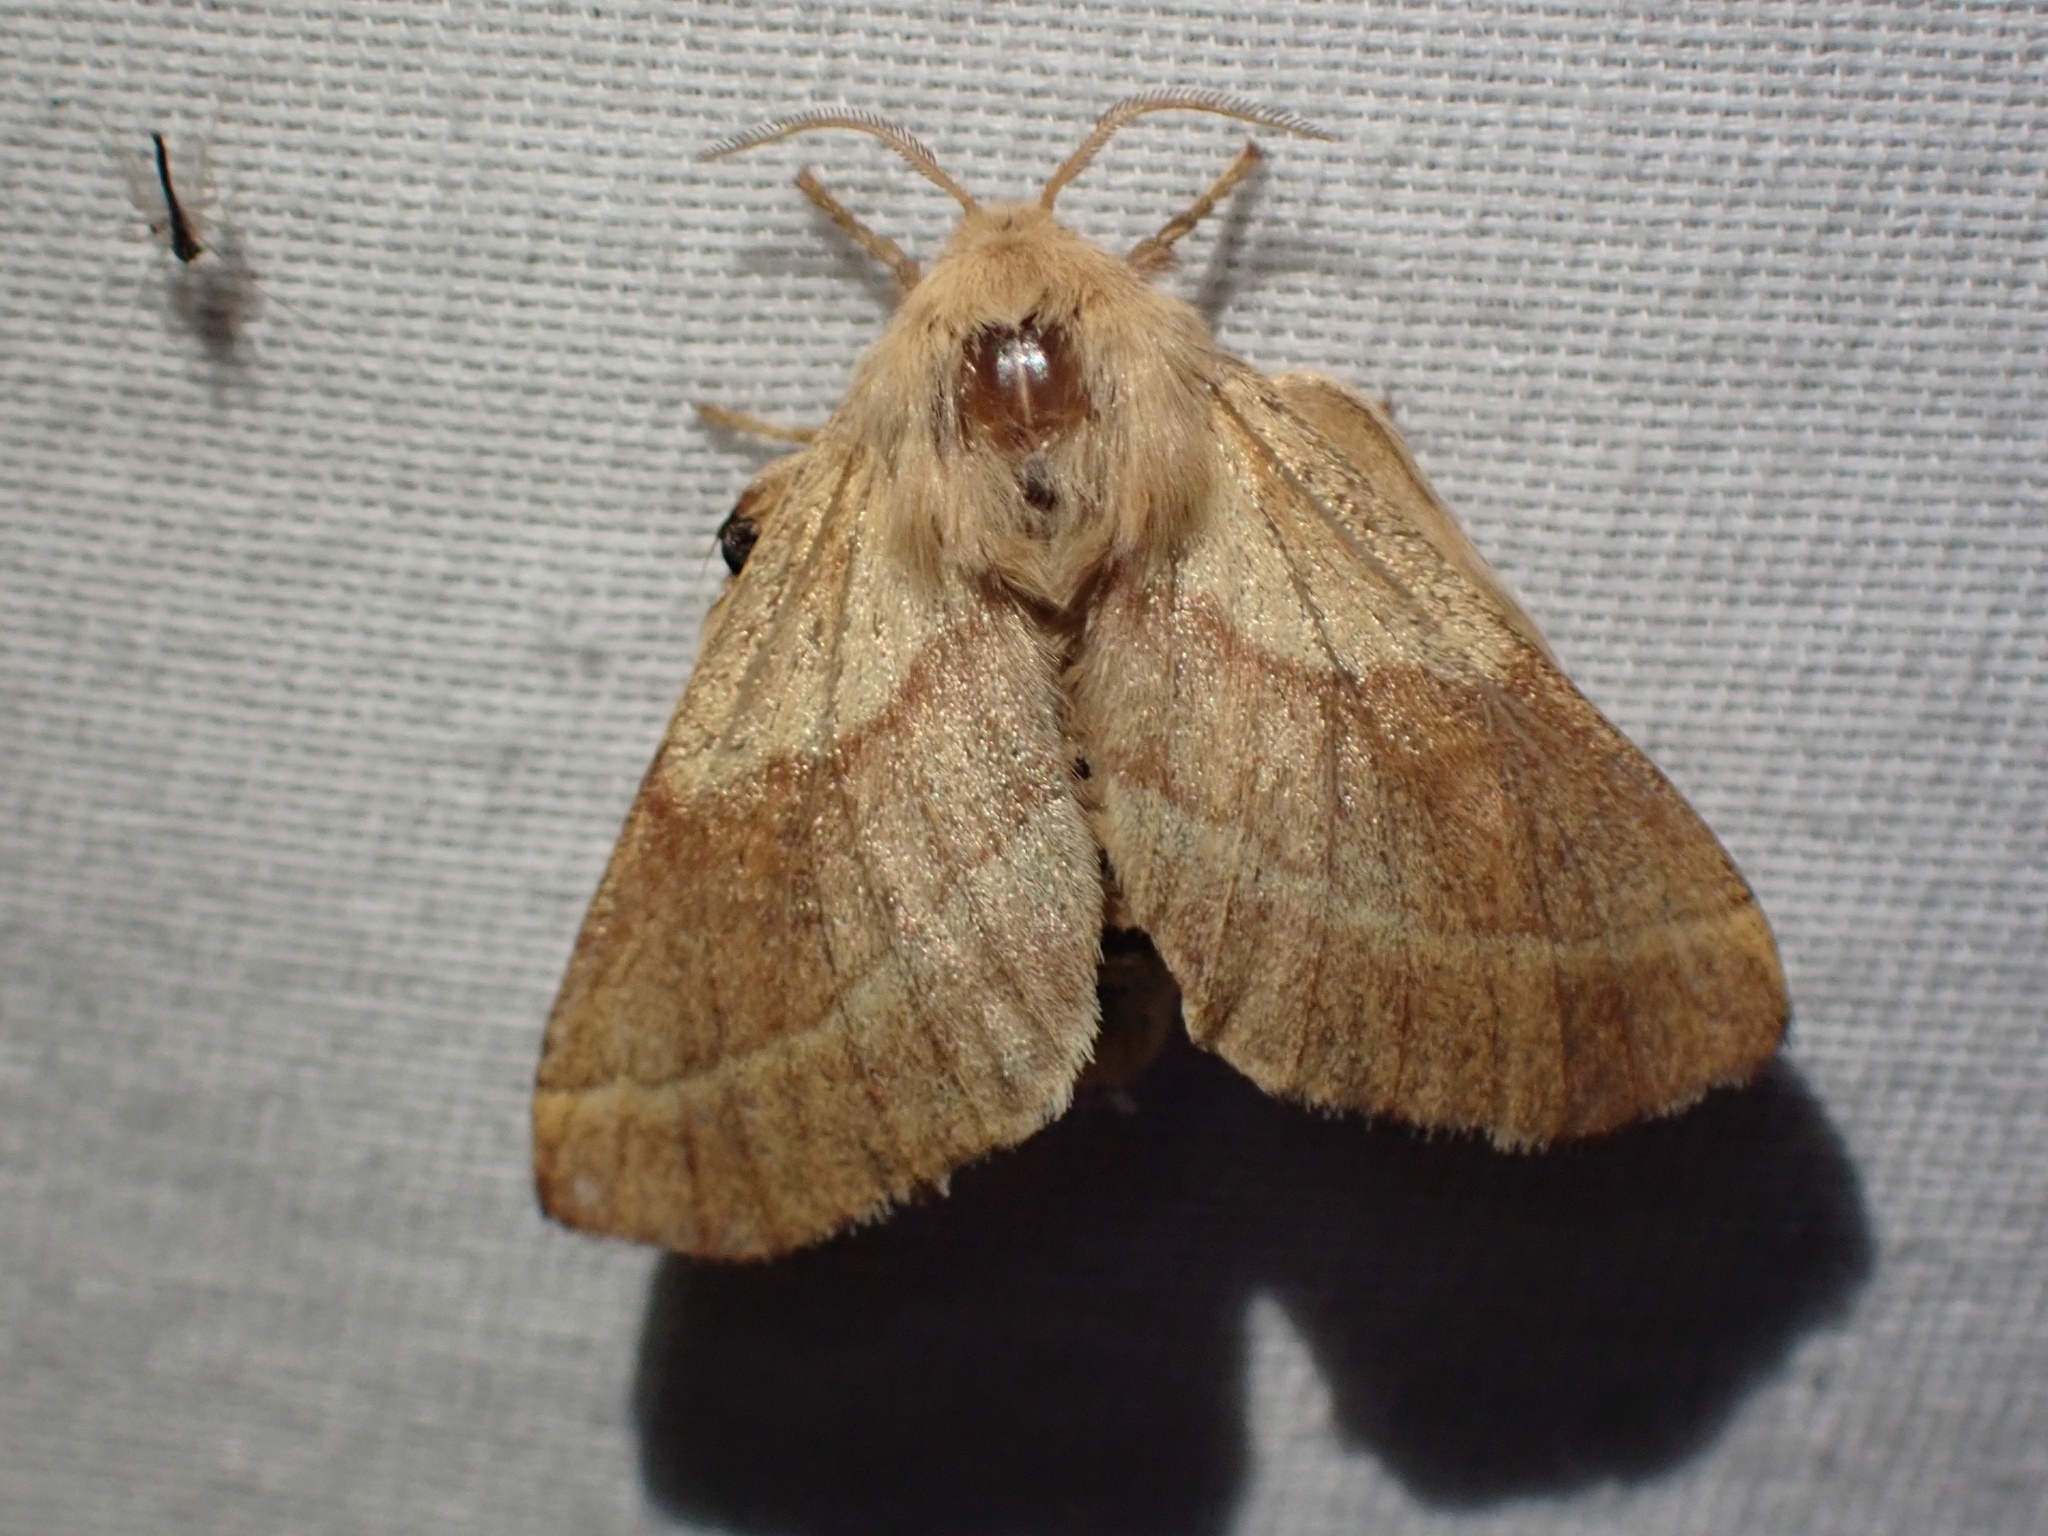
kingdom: Animalia
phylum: Arthropoda
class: Insecta
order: Lepidoptera
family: Lasiocampidae
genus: Malacosoma
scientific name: Malacosoma disstria
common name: Forest tent caterpillar
